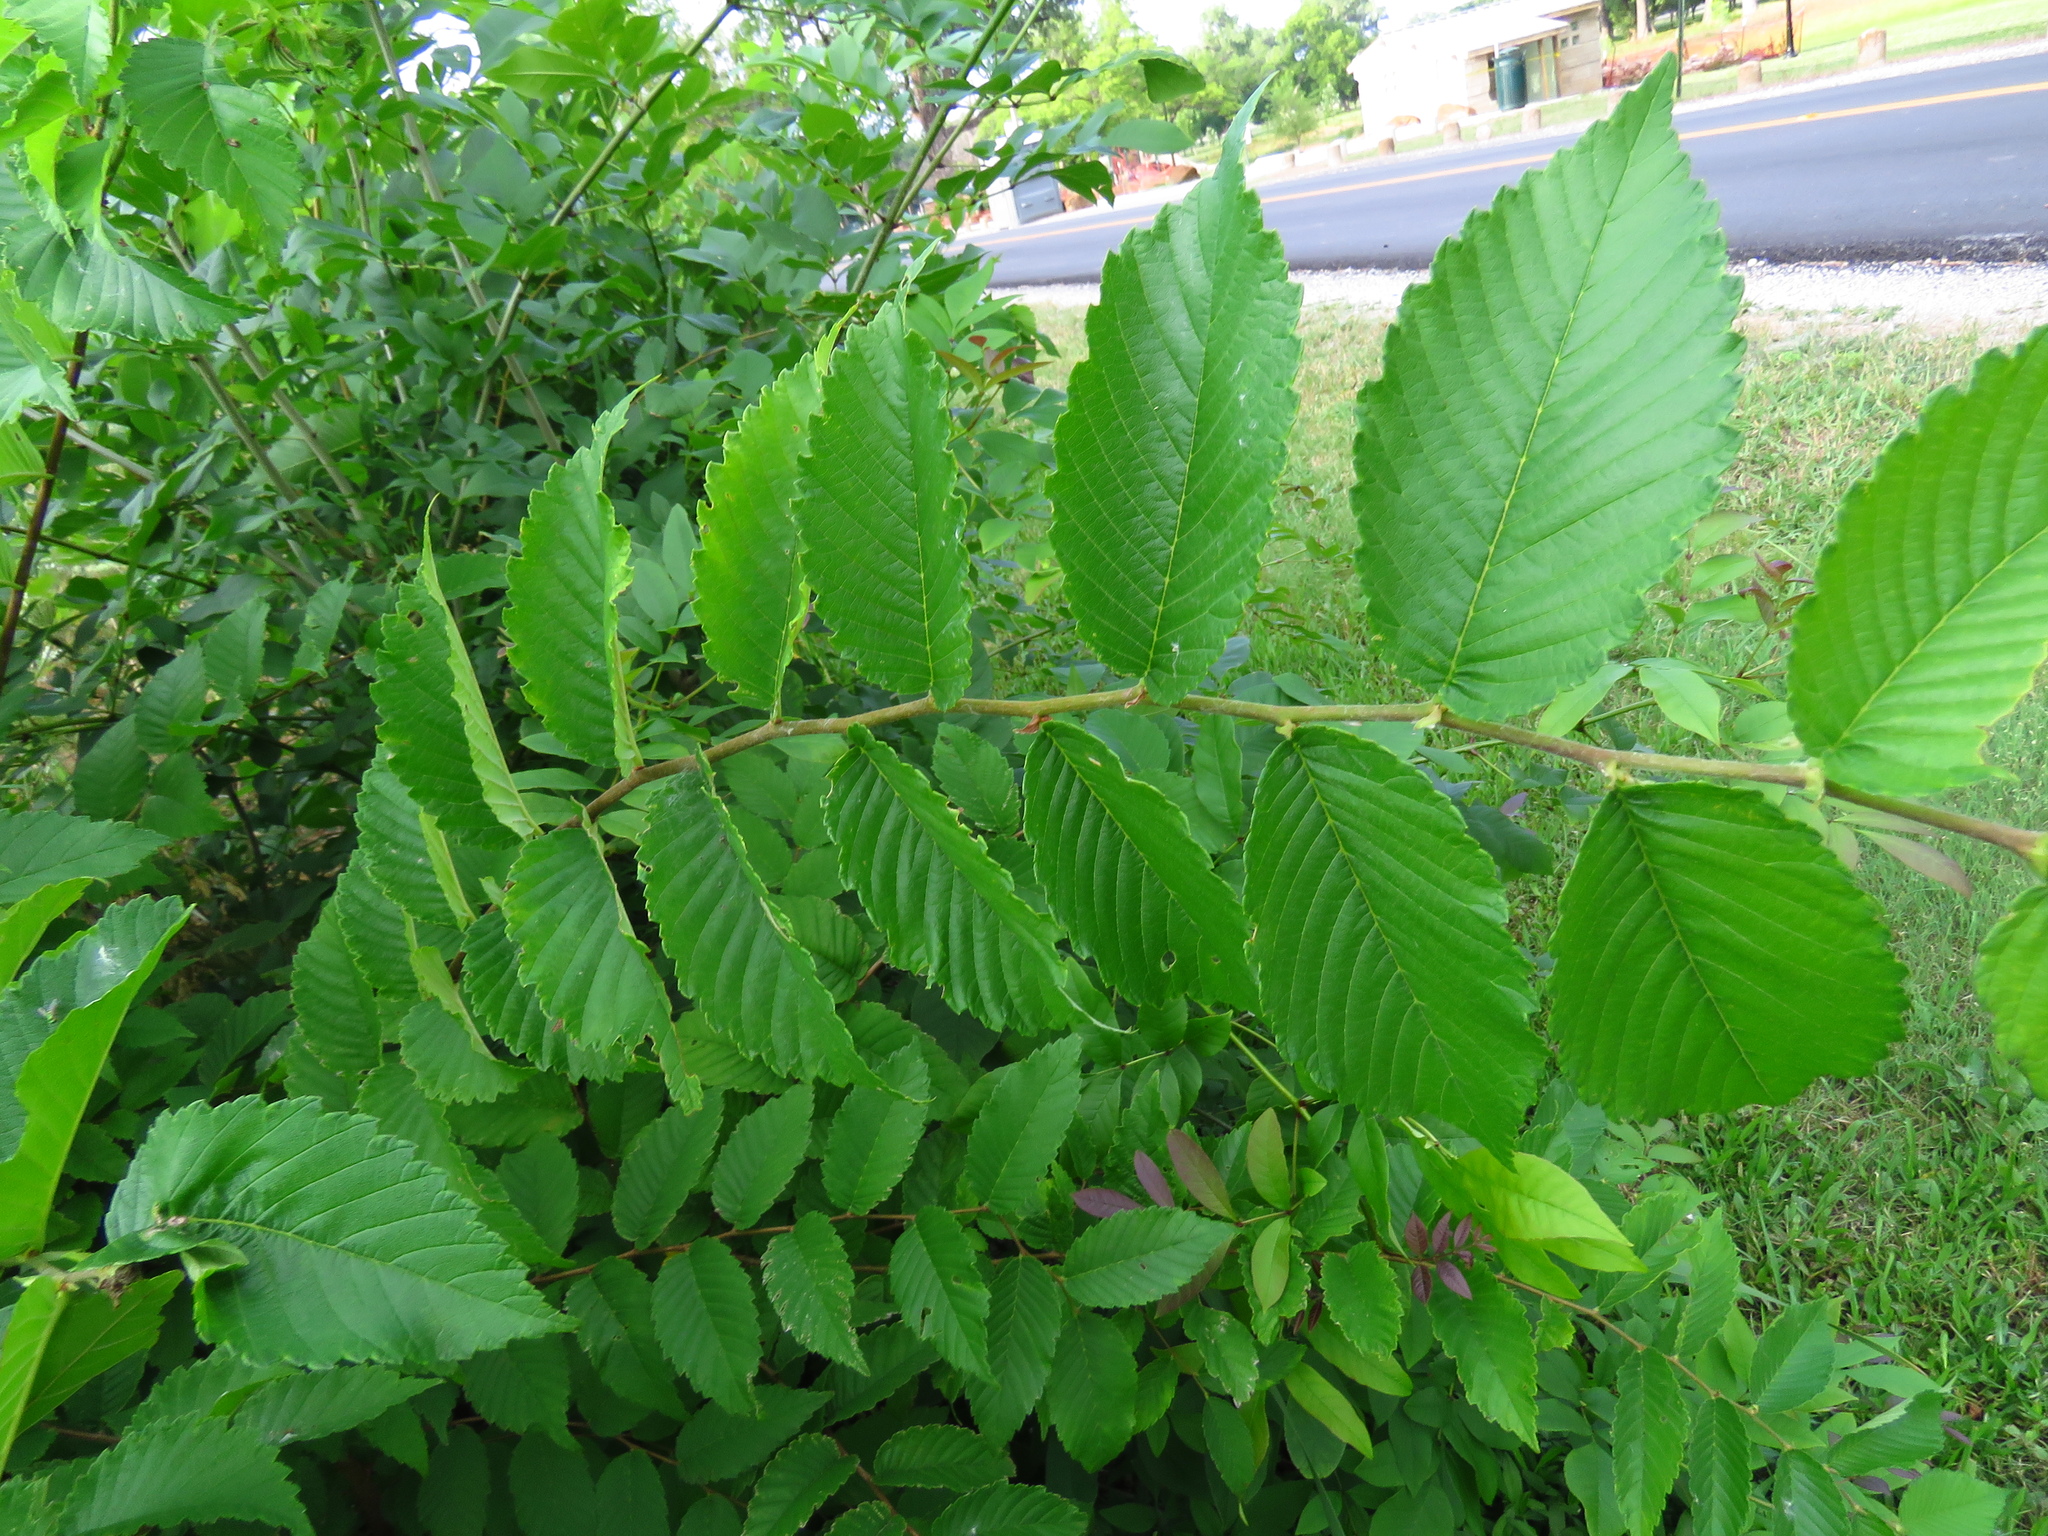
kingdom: Plantae
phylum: Tracheophyta
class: Magnoliopsida
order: Rosales
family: Ulmaceae
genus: Ulmus
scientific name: Ulmus americana
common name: American elm
